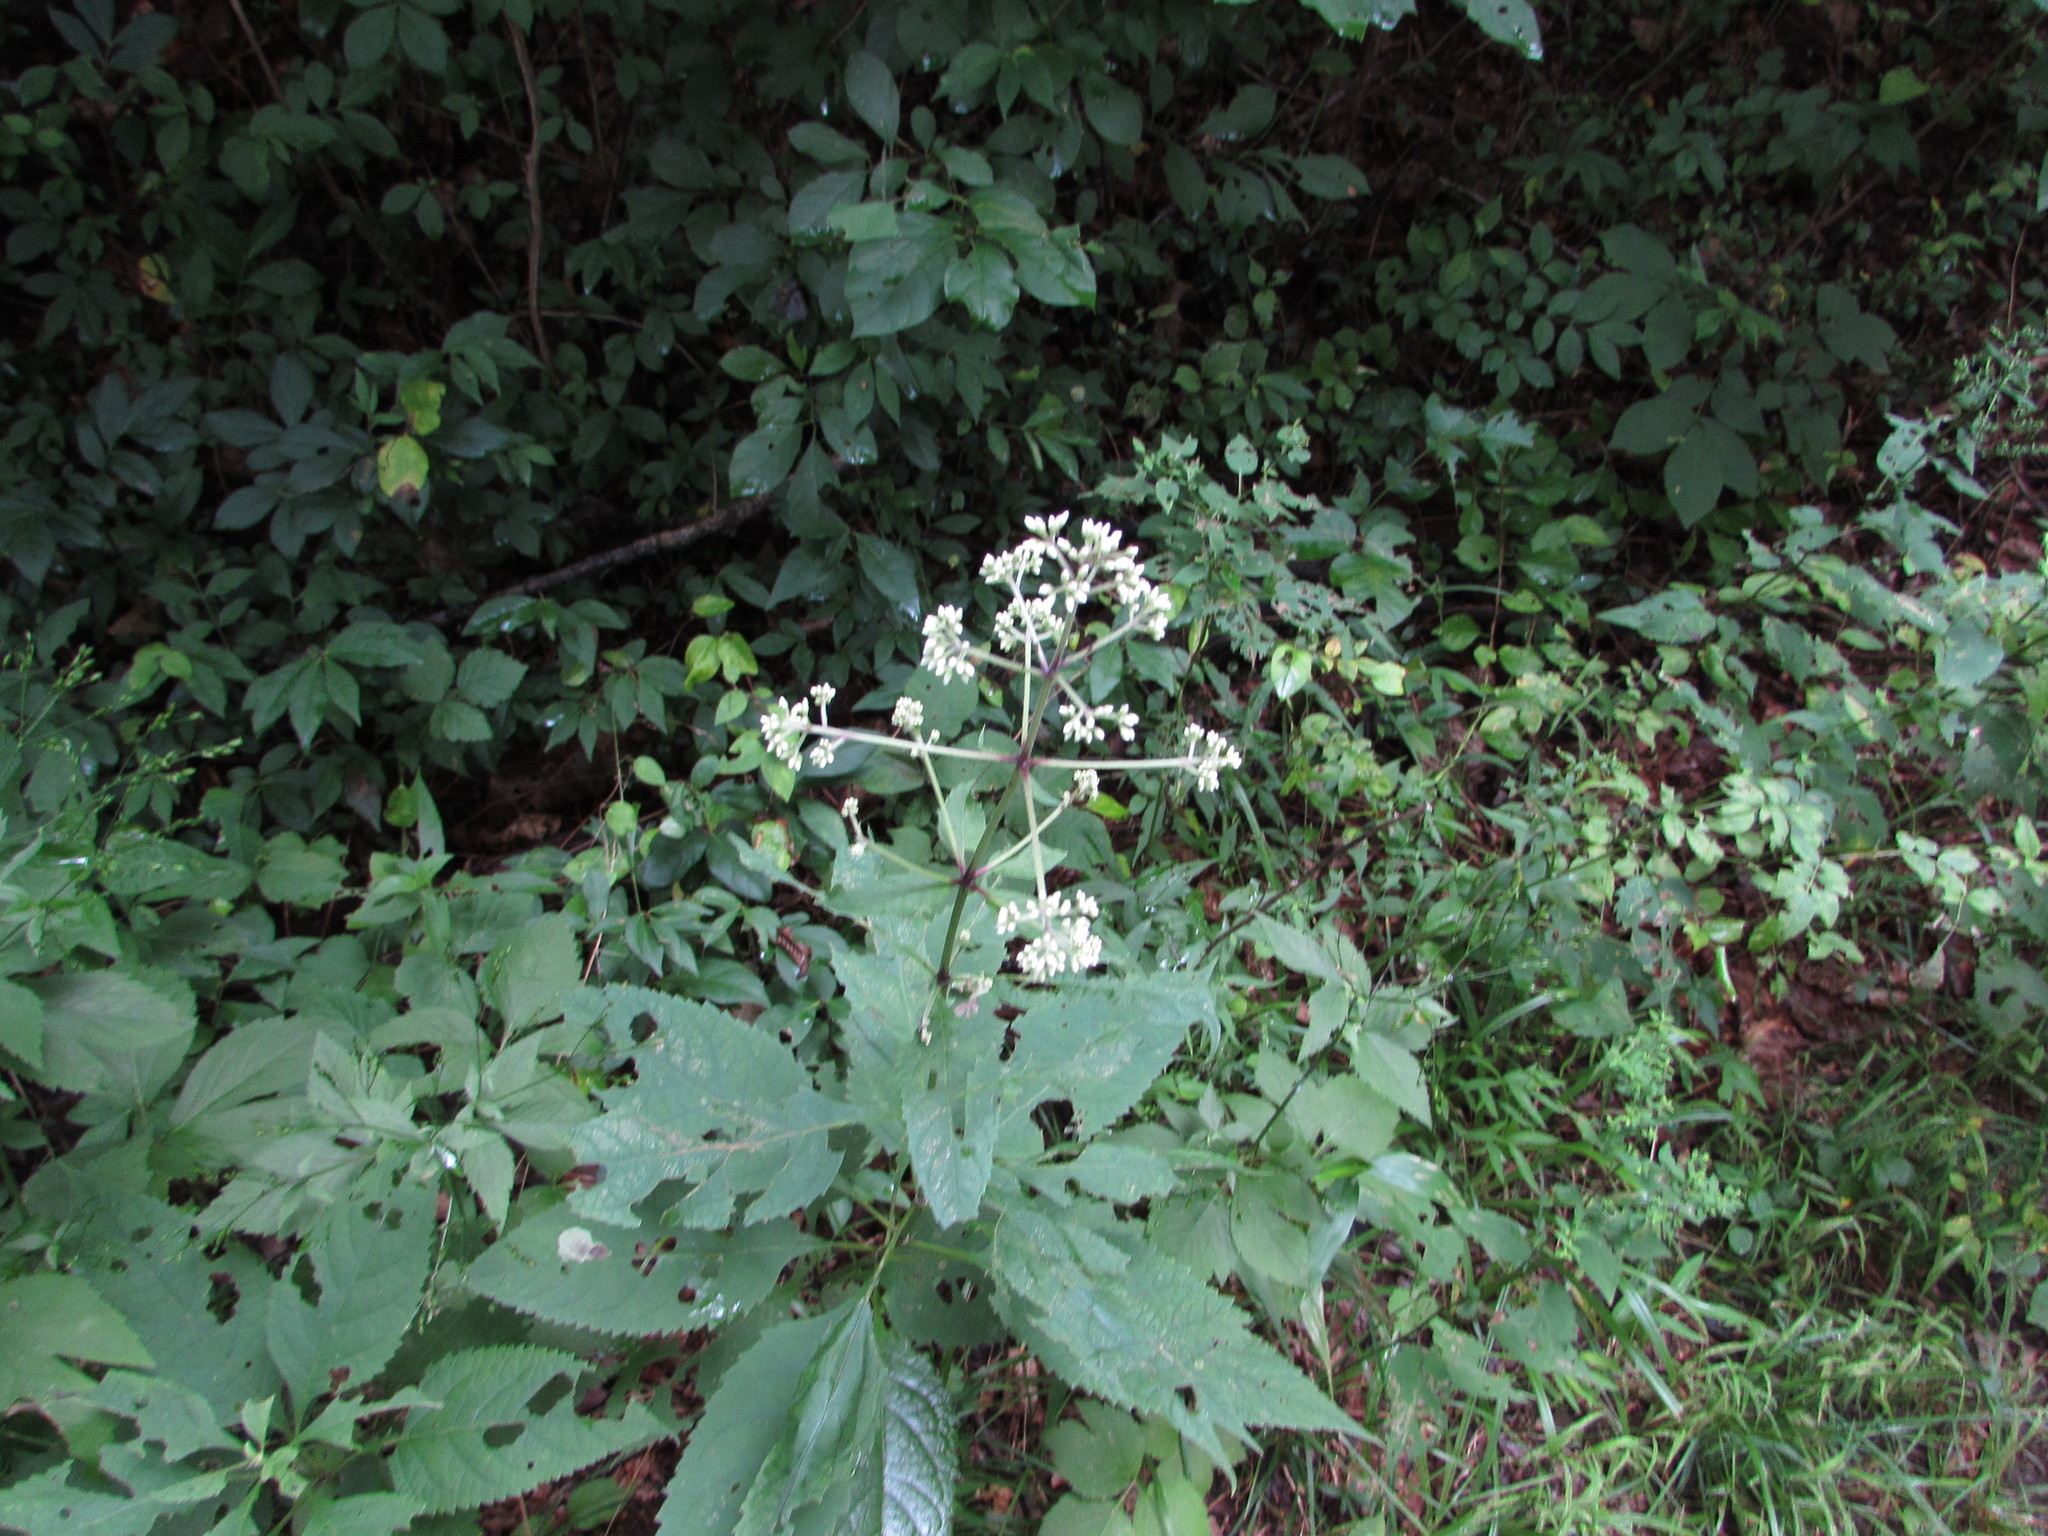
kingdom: Plantae
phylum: Tracheophyta
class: Magnoliopsida
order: Asterales
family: Asteraceae
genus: Eutrochium
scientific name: Eutrochium purpureum
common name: Gravelroot
